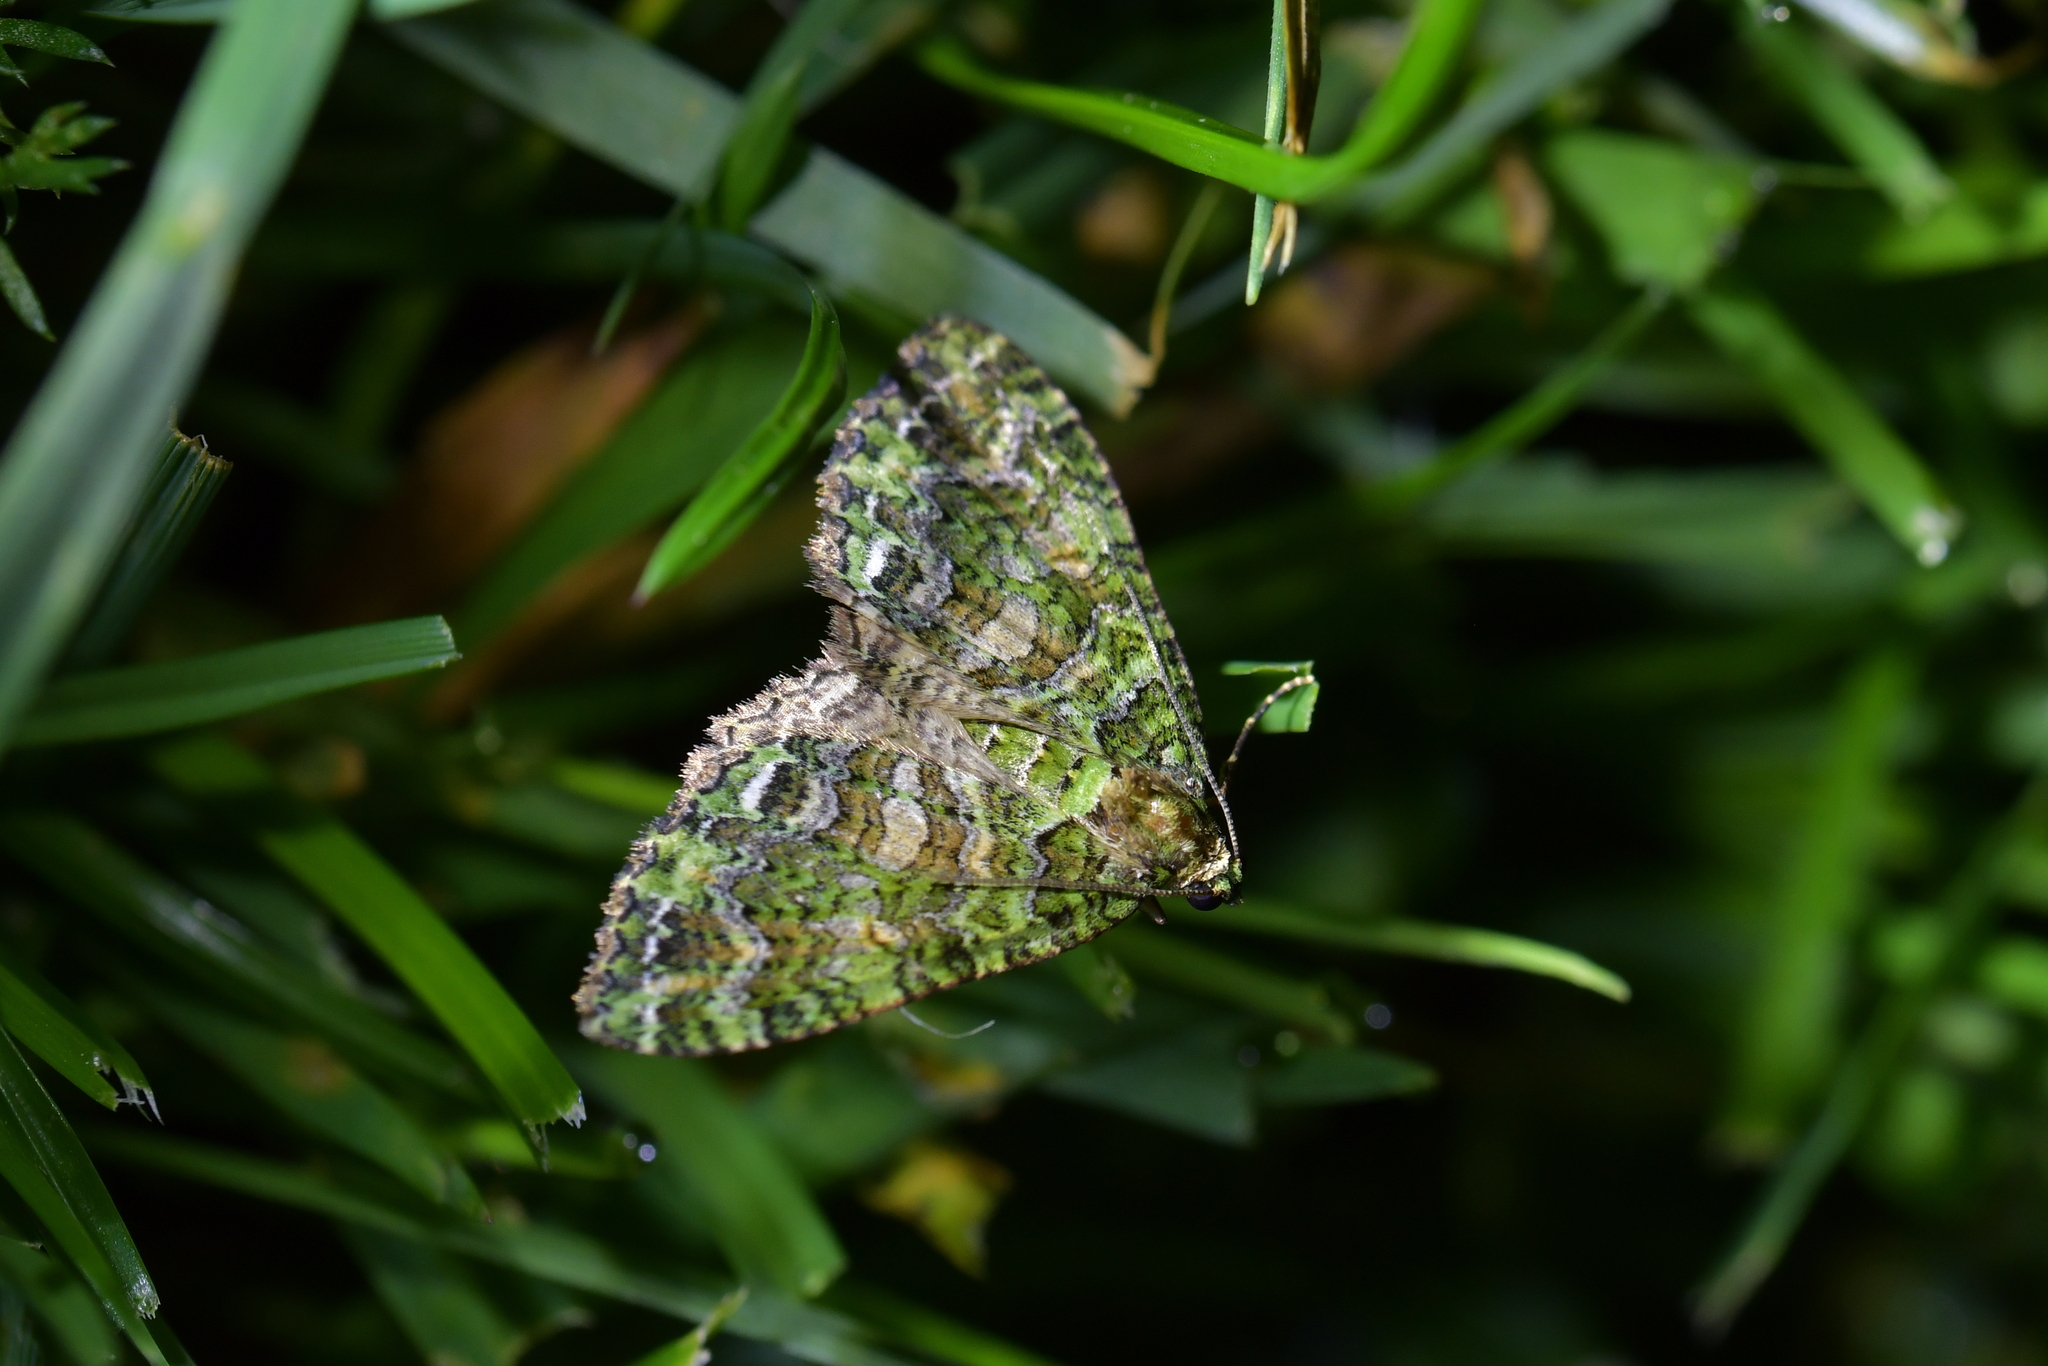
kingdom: Animalia
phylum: Arthropoda
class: Insecta
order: Lepidoptera
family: Geometridae
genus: Austrocidaria
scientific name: Austrocidaria similata
